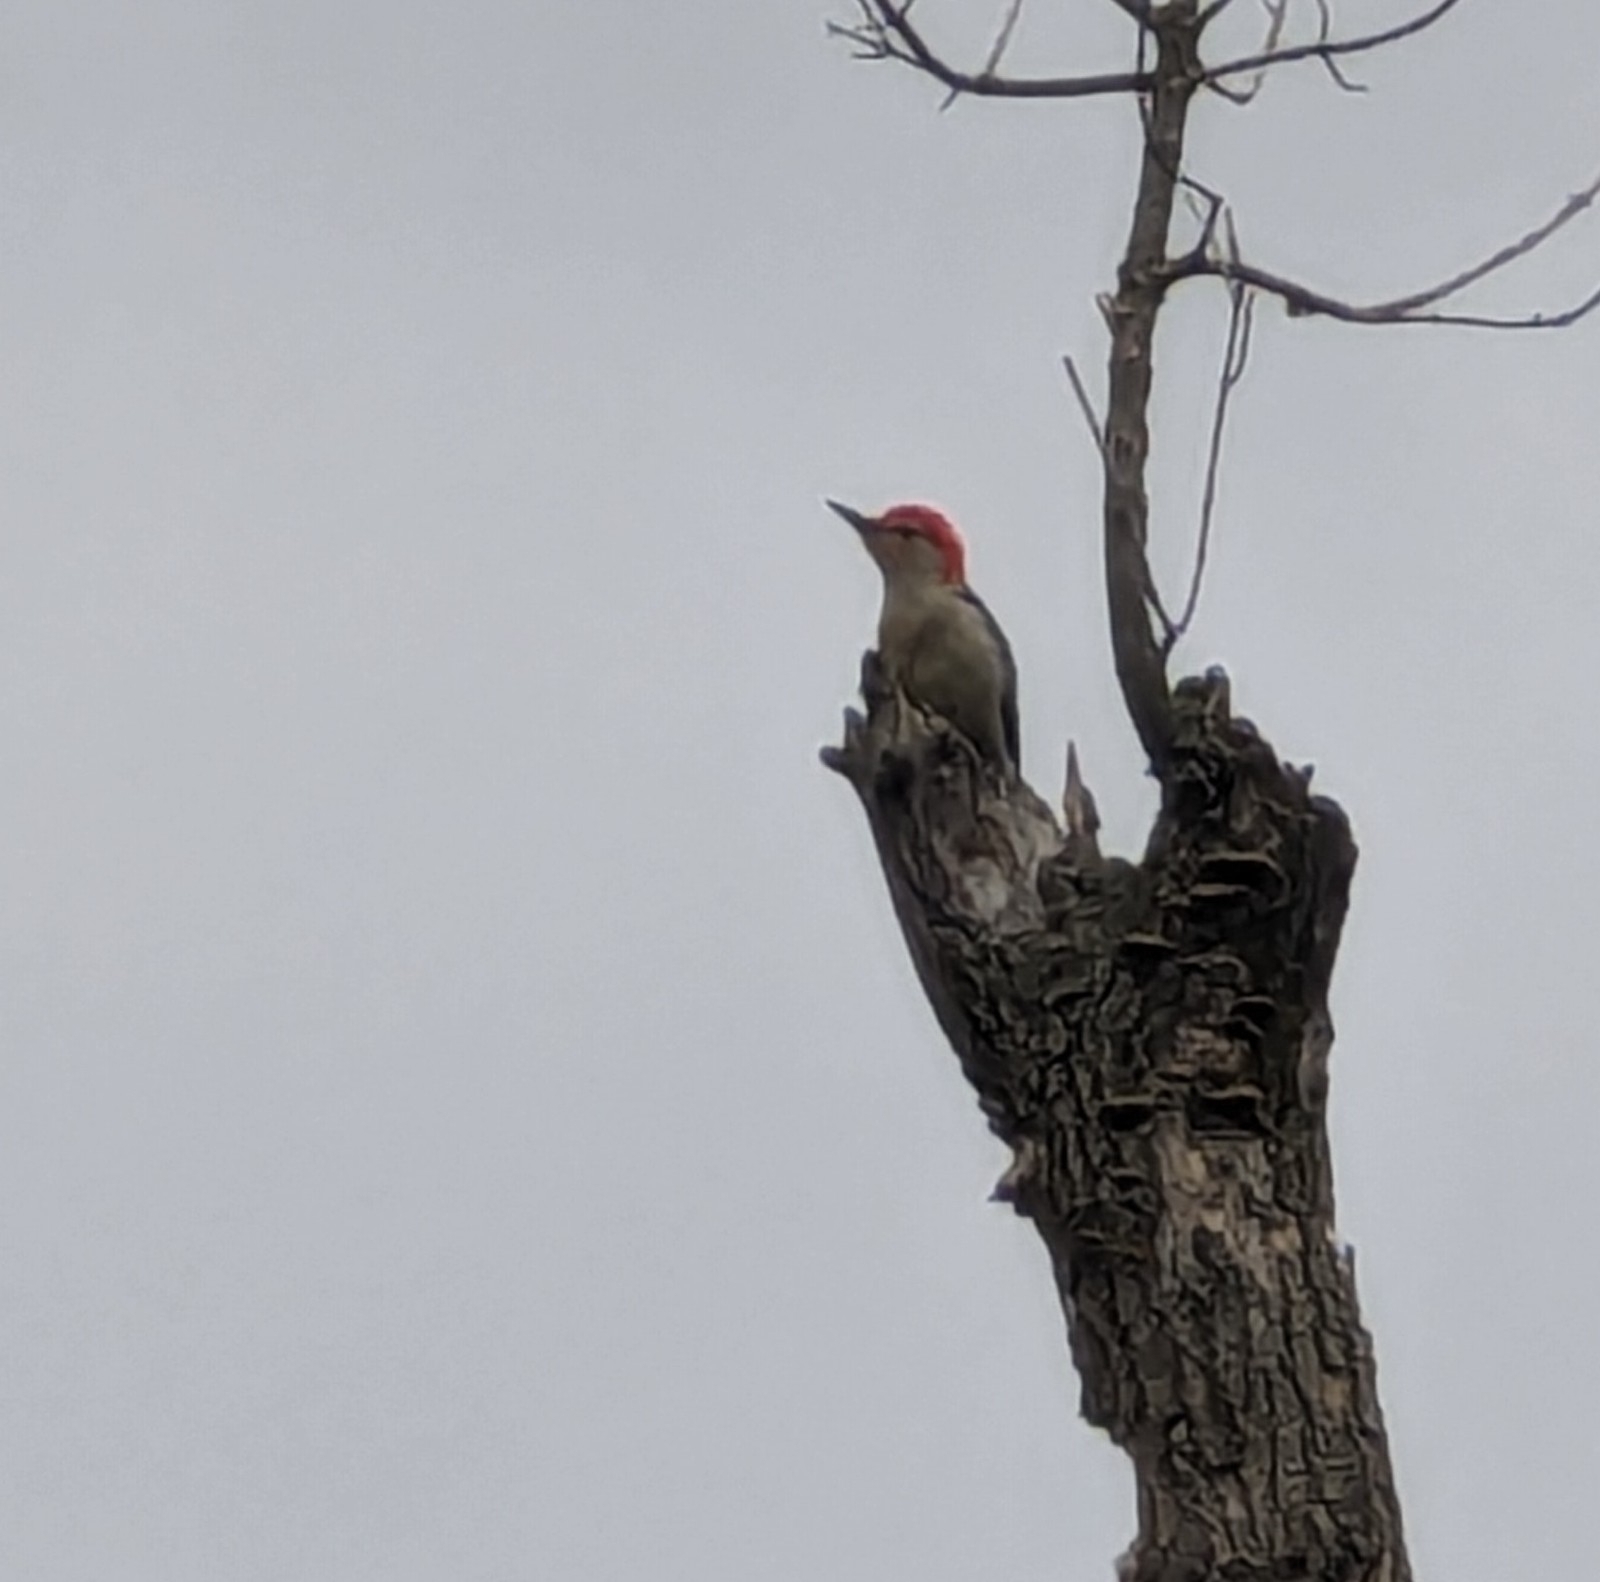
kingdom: Animalia
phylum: Chordata
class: Aves
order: Piciformes
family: Picidae
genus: Melanerpes
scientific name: Melanerpes carolinus
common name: Red-bellied woodpecker
